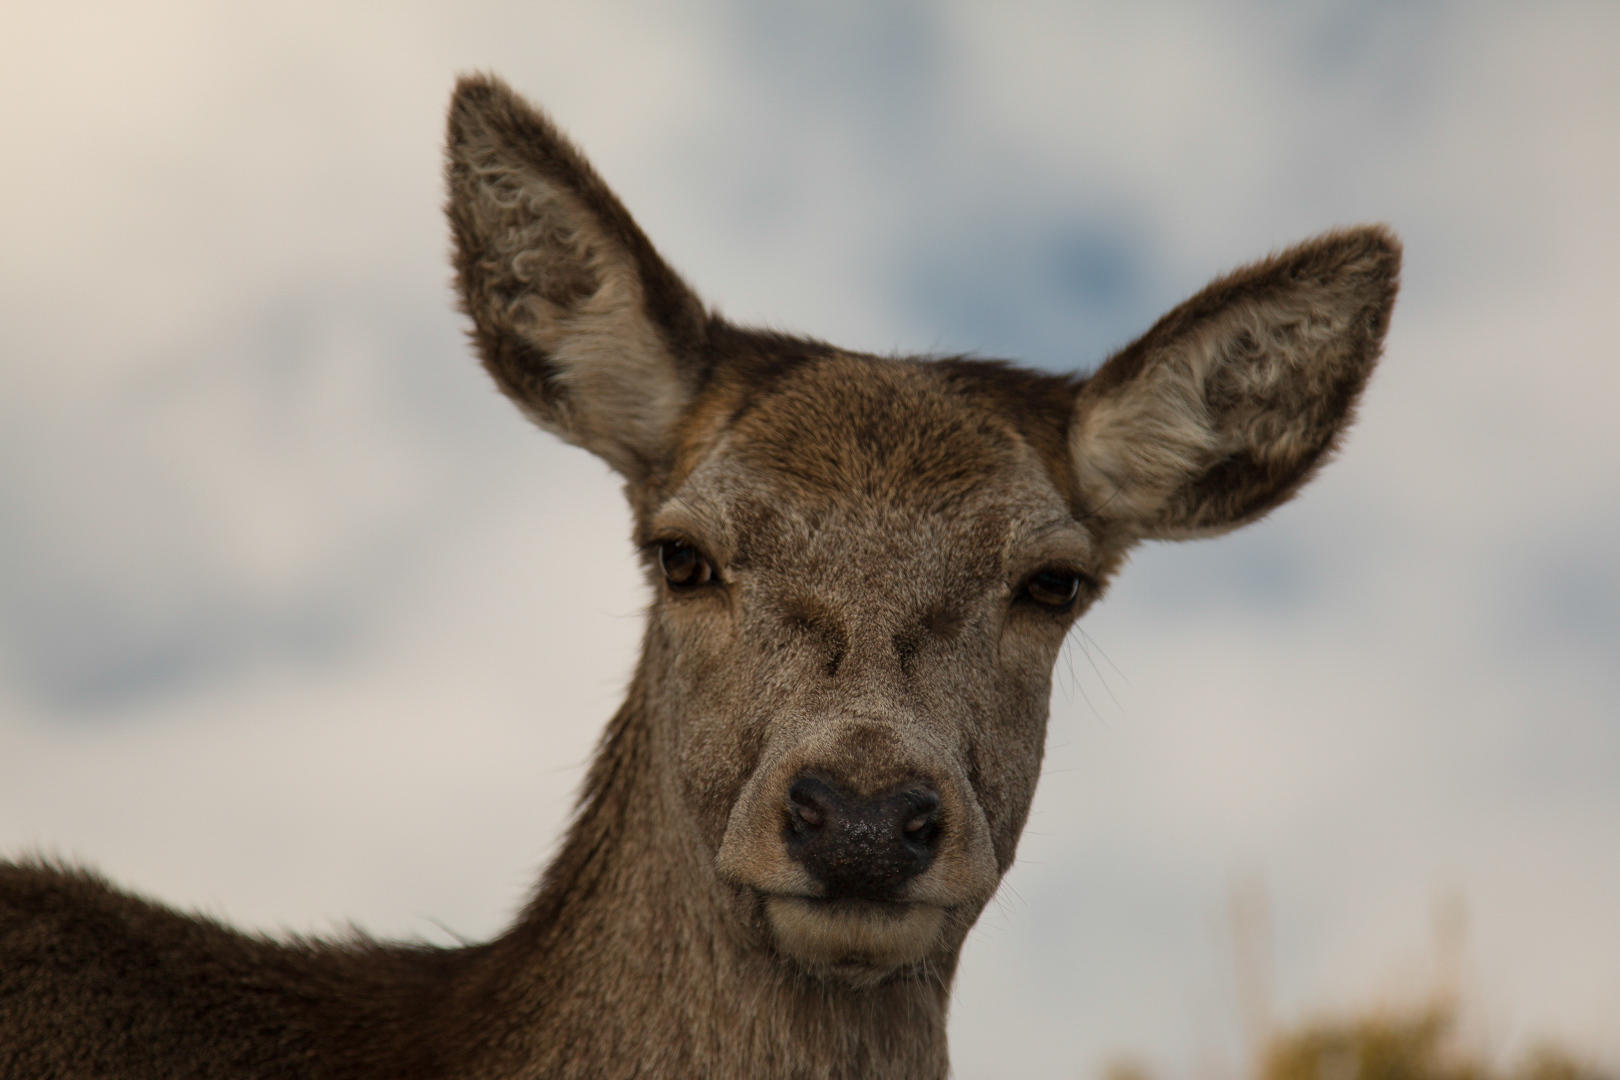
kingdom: Animalia
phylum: Chordata
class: Mammalia
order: Artiodactyla
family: Cervidae
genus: Cervus
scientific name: Cervus elaphus
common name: Red deer
